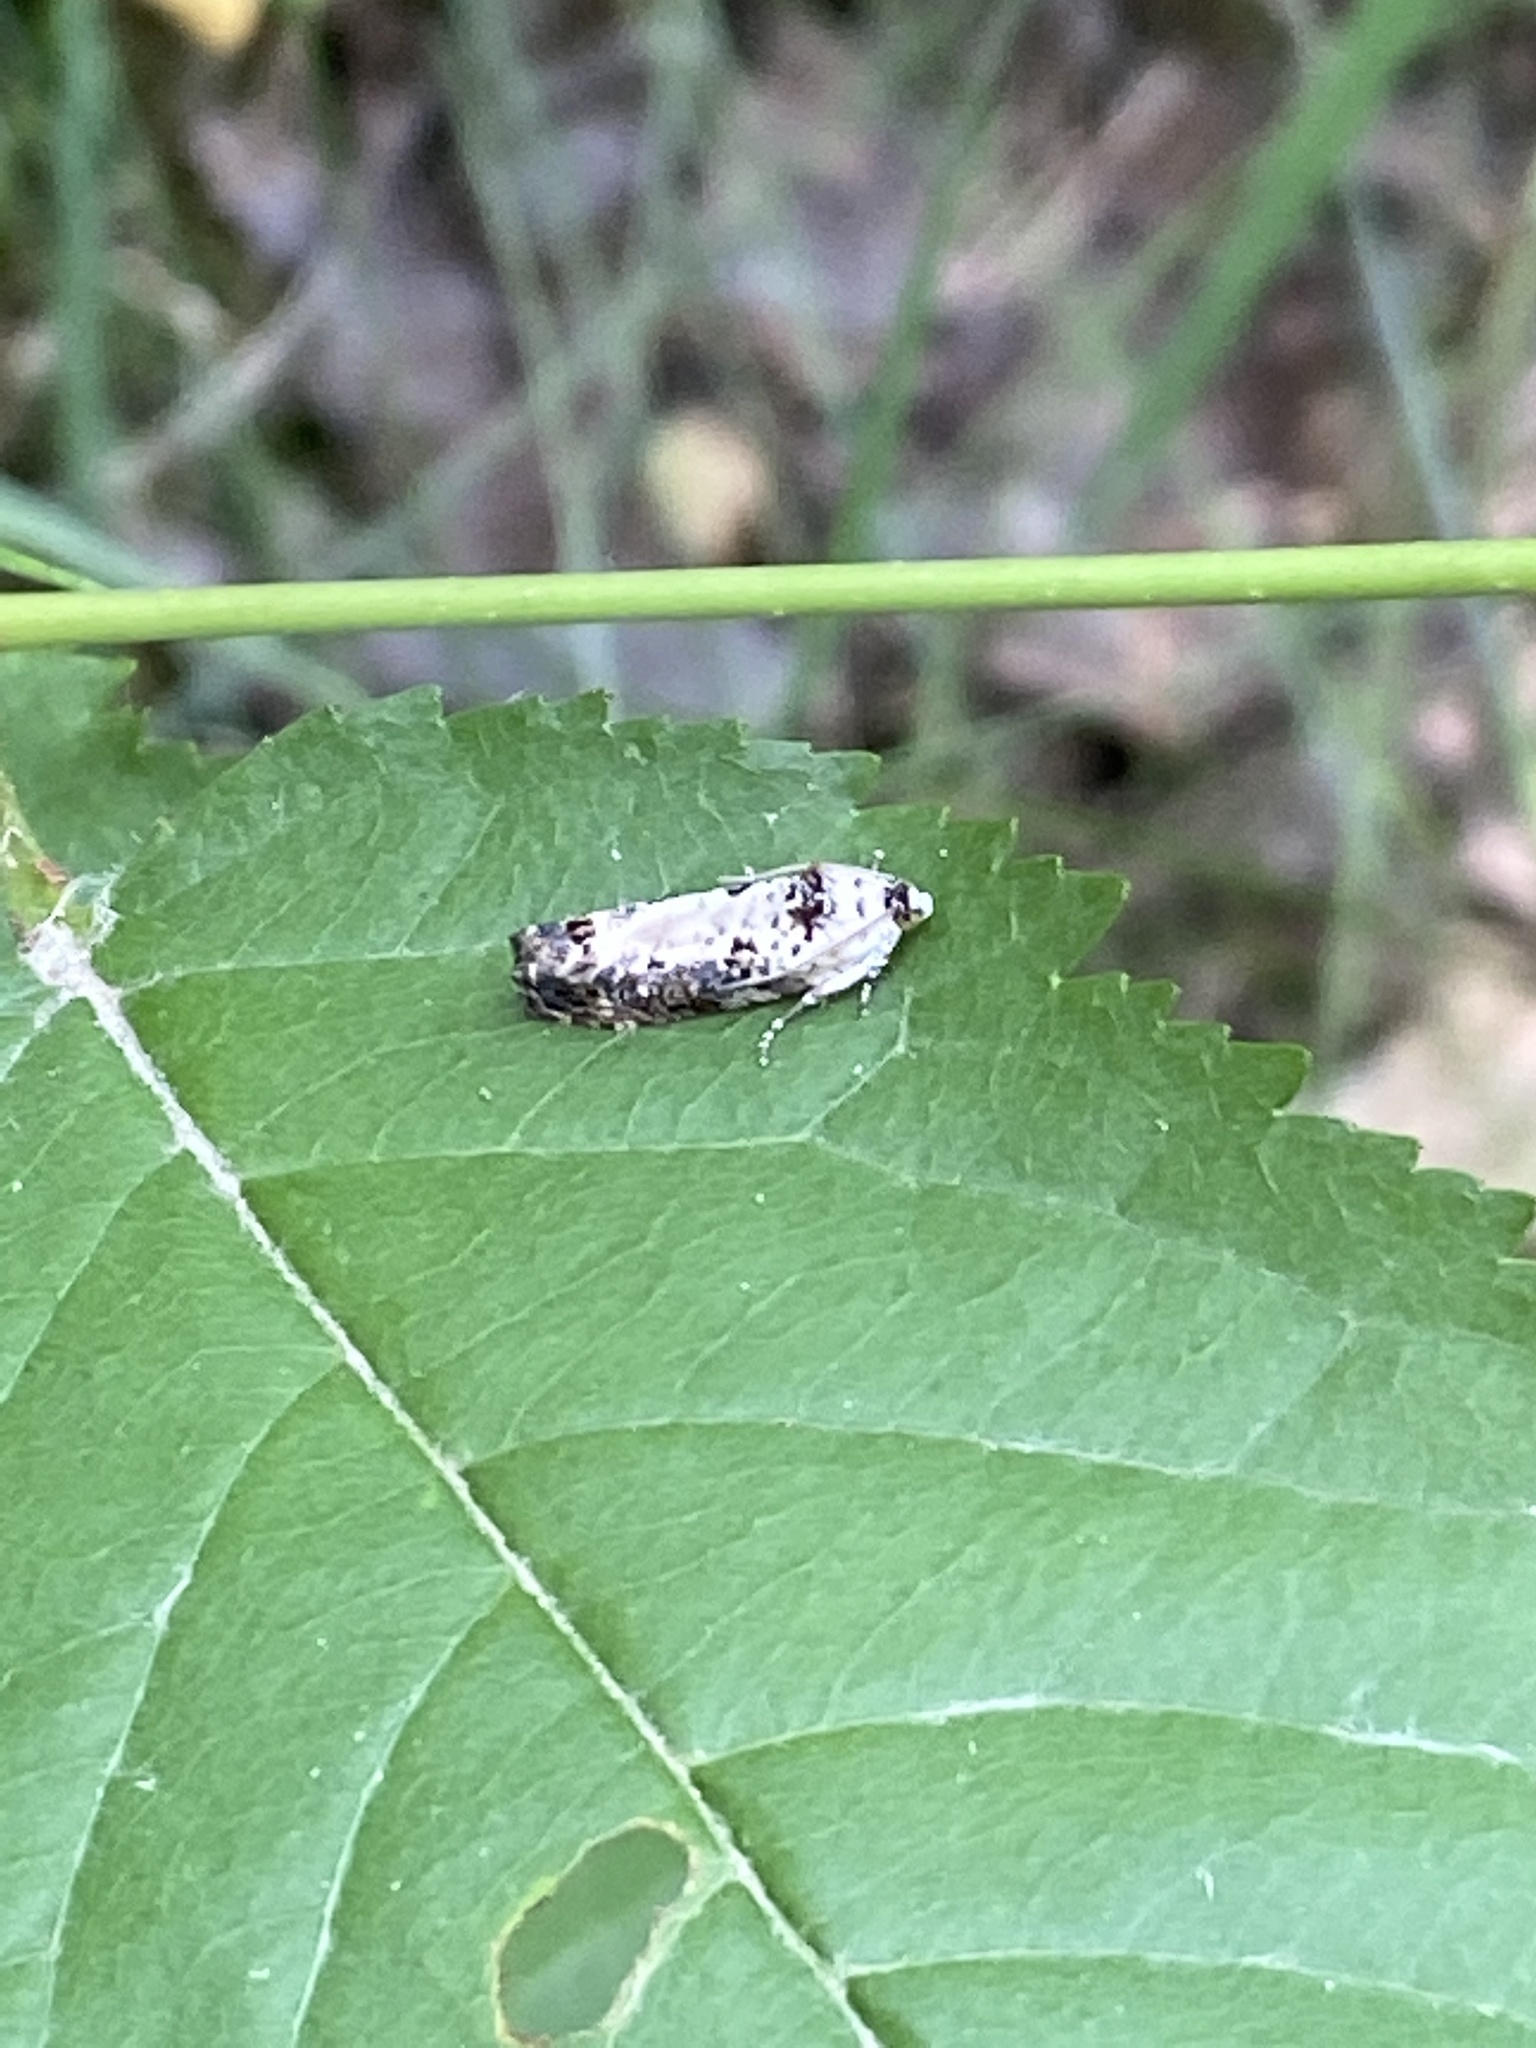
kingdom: Animalia
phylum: Arthropoda
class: Insecta
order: Lepidoptera
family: Tortricidae
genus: Hedya
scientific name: Hedya salicella
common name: Large tortricid moth
